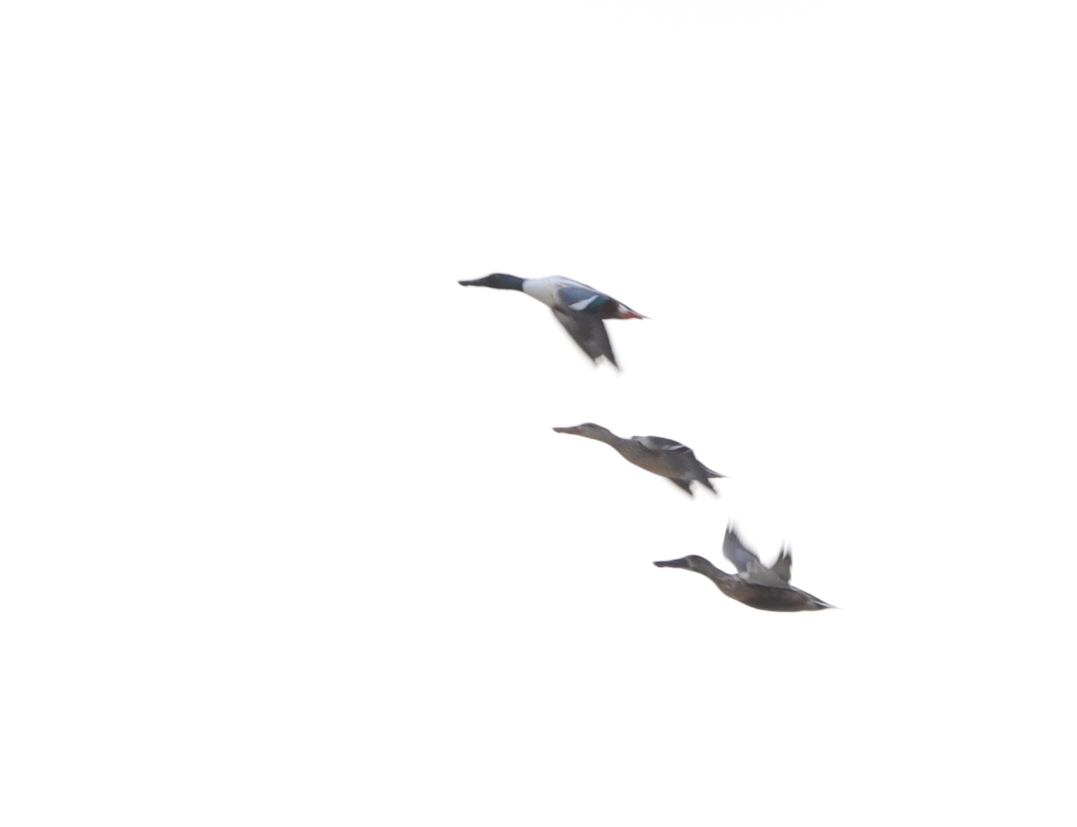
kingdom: Animalia
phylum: Chordata
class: Aves
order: Anseriformes
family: Anatidae
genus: Spatula
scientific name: Spatula clypeata
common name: Northern shoveler
